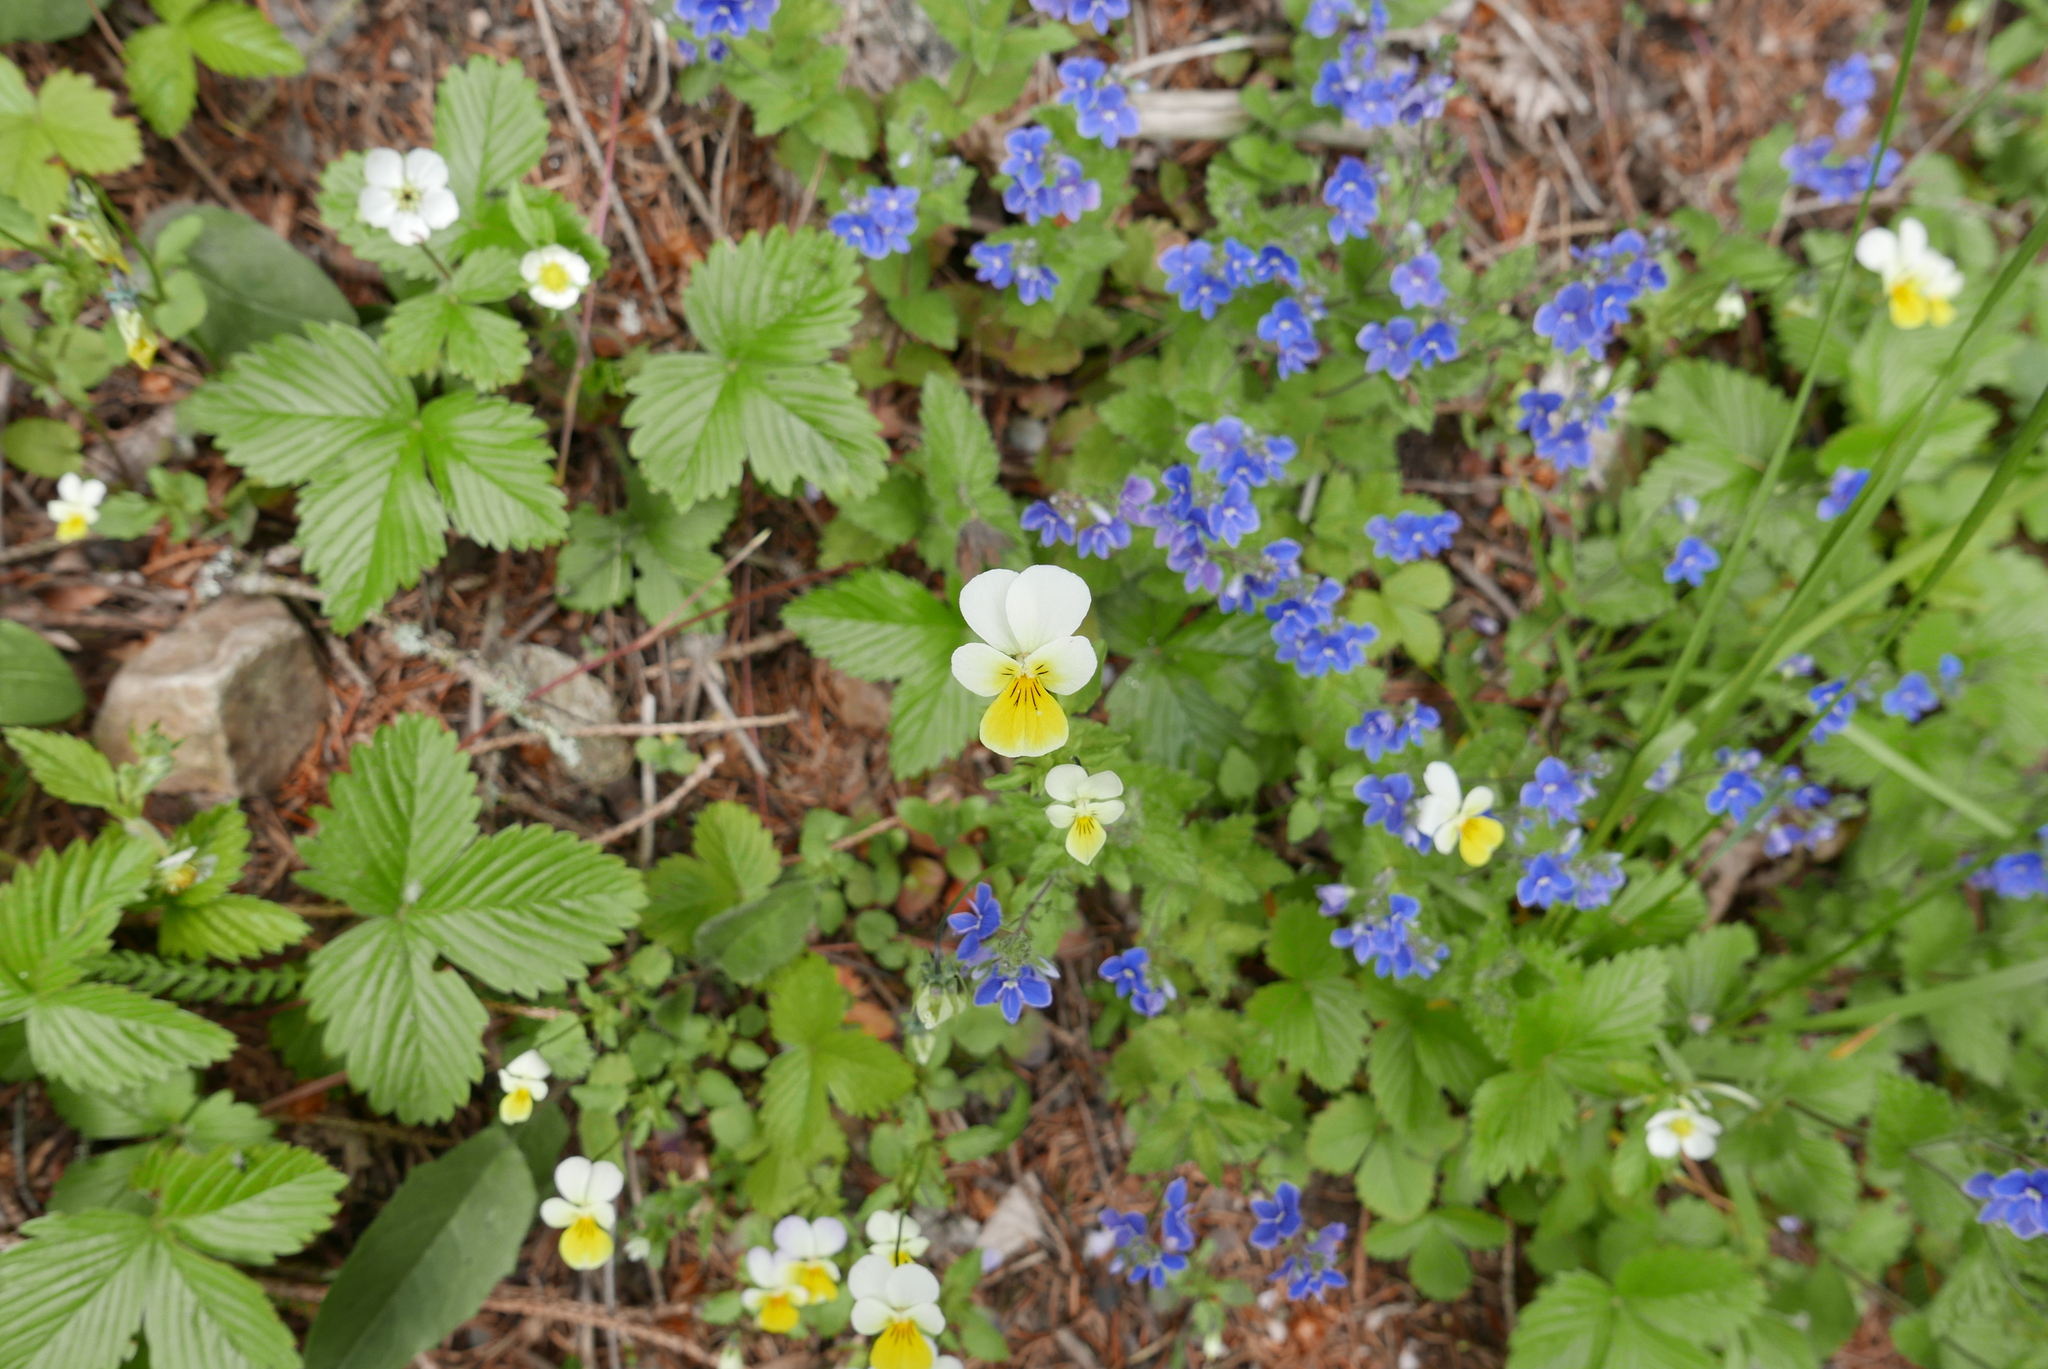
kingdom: Plantae
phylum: Tracheophyta
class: Magnoliopsida
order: Malpighiales
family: Violaceae
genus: Viola
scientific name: Viola arvensis
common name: Field pansy
